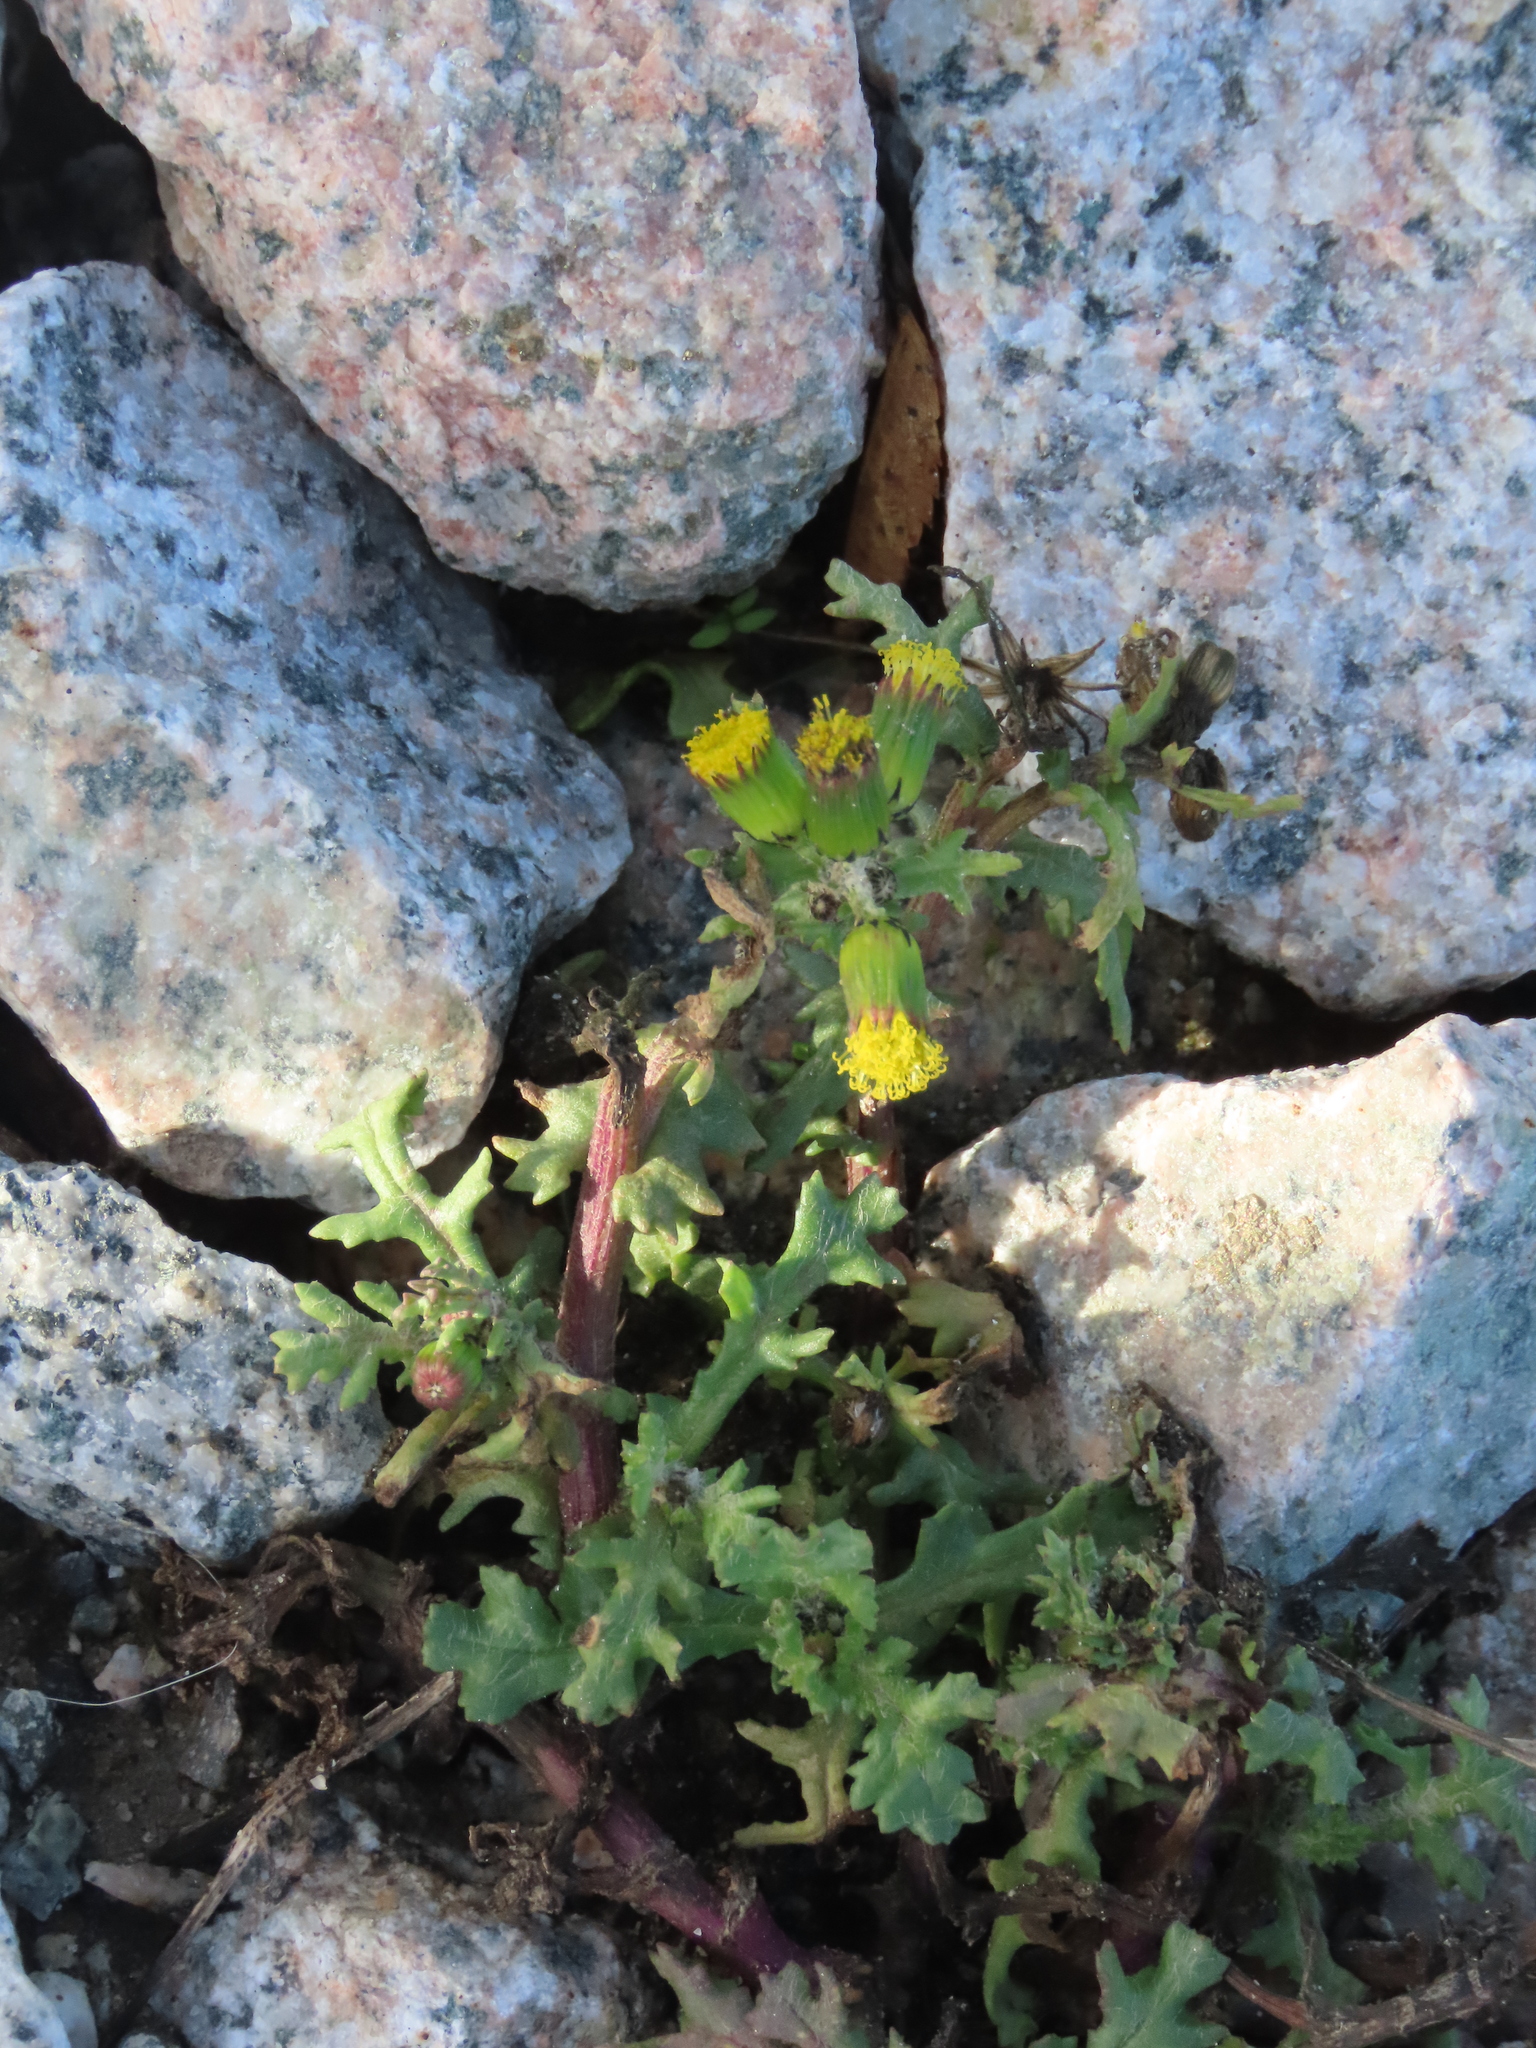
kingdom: Plantae
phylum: Tracheophyta
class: Magnoliopsida
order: Asterales
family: Asteraceae
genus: Senecio
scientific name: Senecio vulgaris
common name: Old-man-in-the-spring
